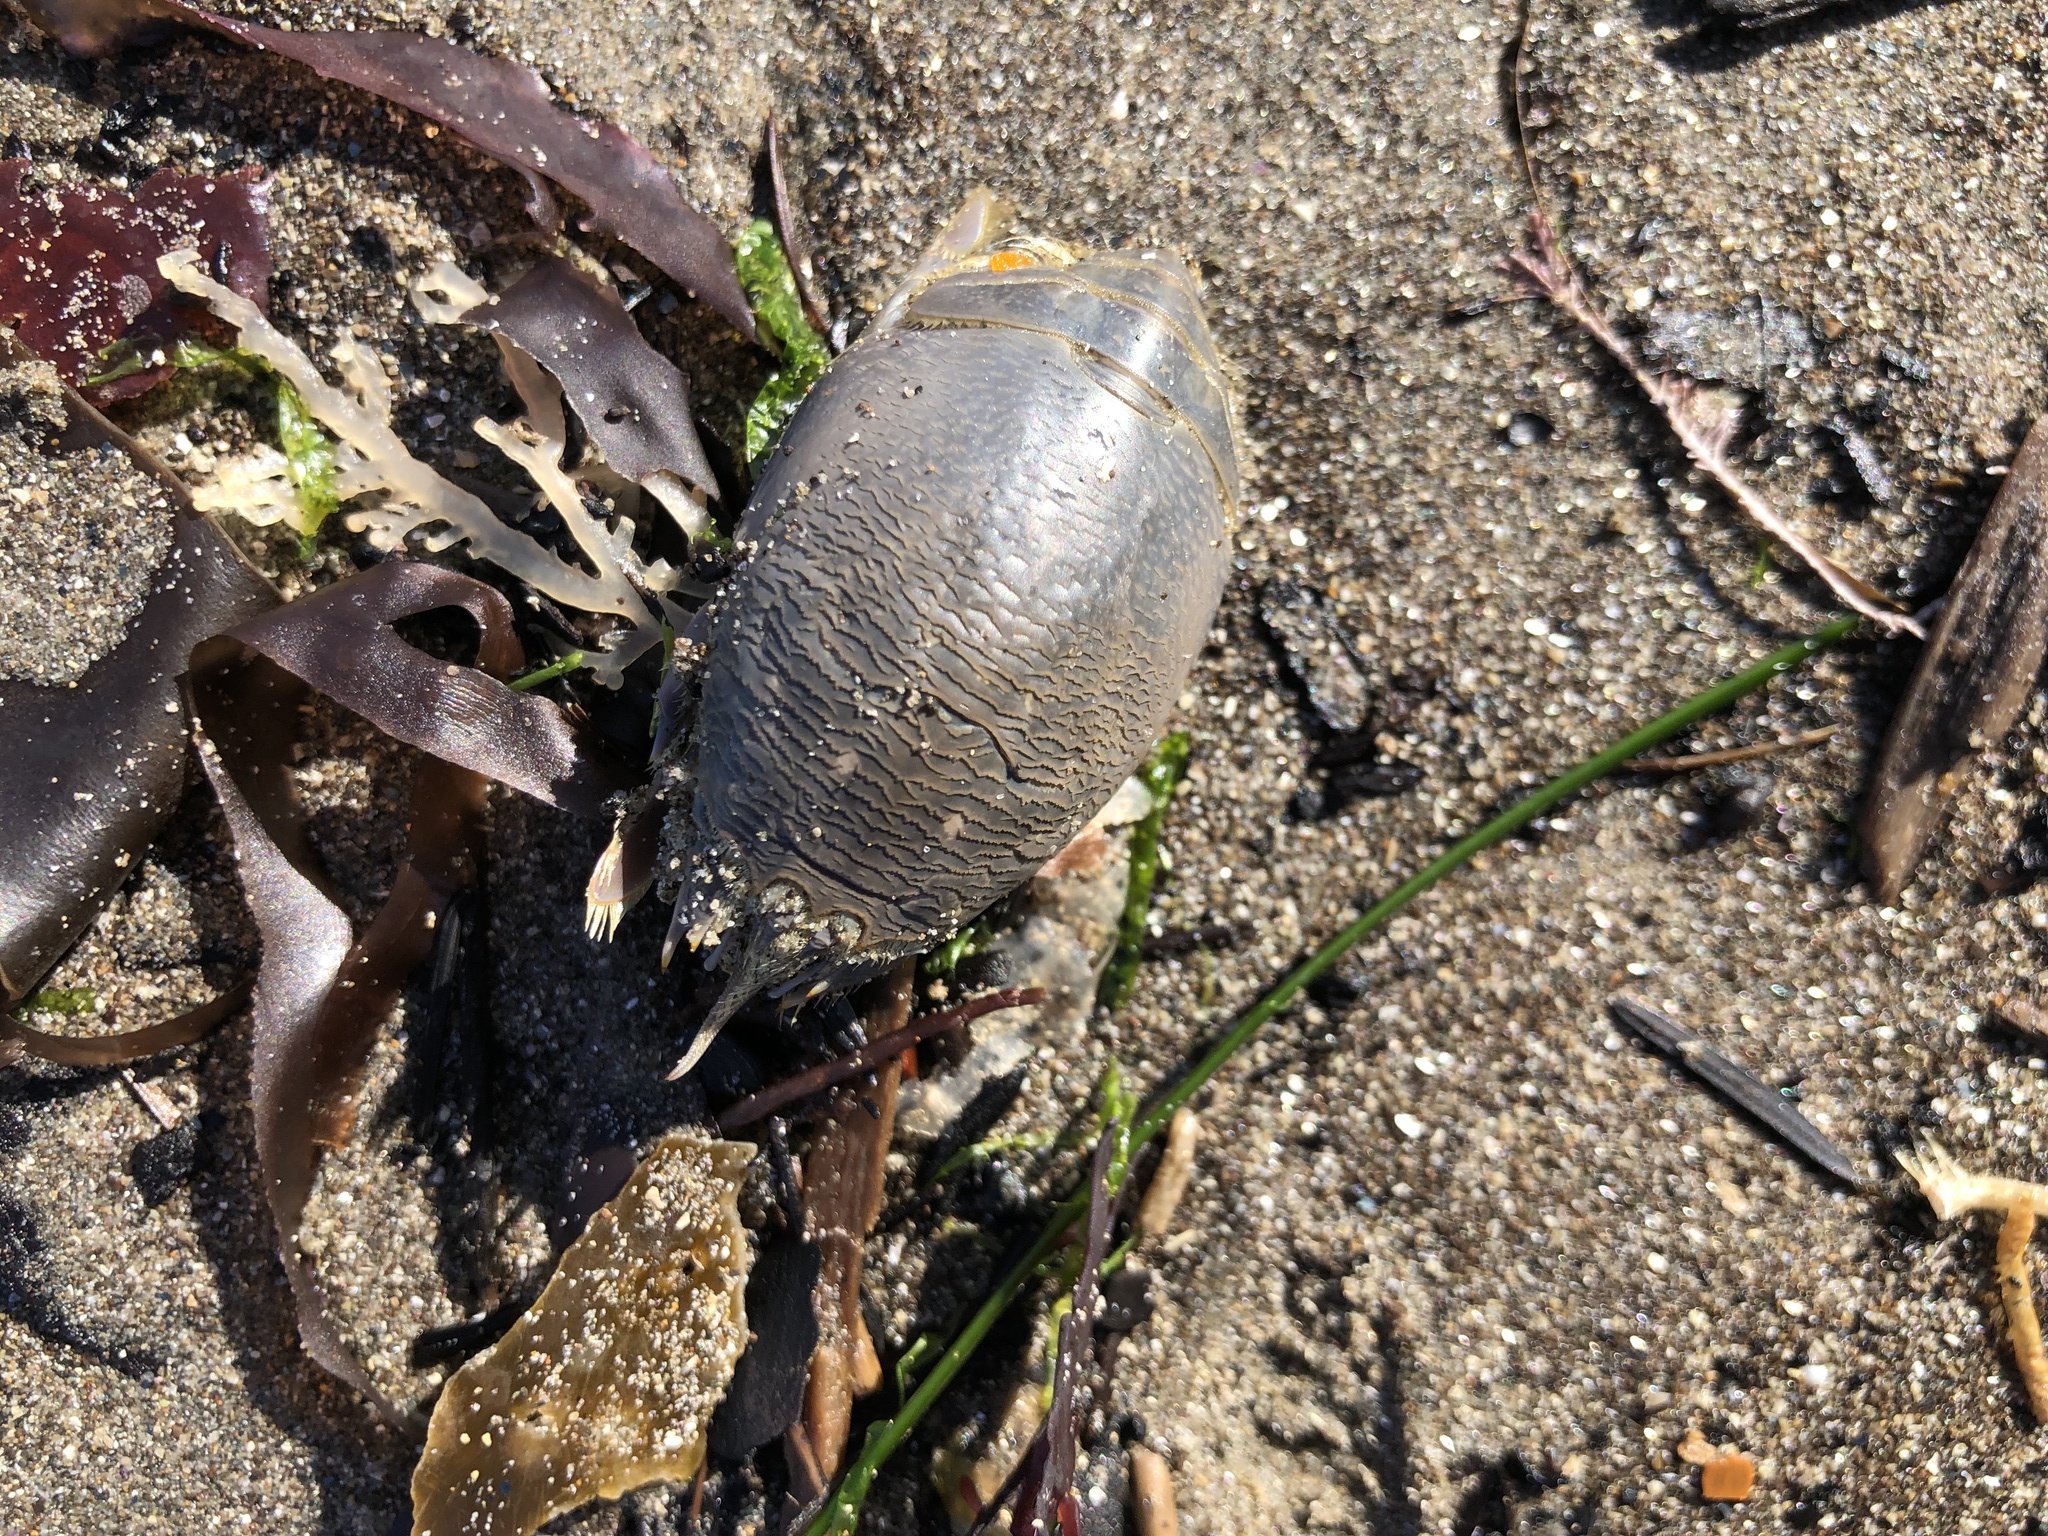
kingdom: Animalia
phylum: Arthropoda
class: Malacostraca
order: Decapoda
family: Hippidae
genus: Emerita
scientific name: Emerita analoga
